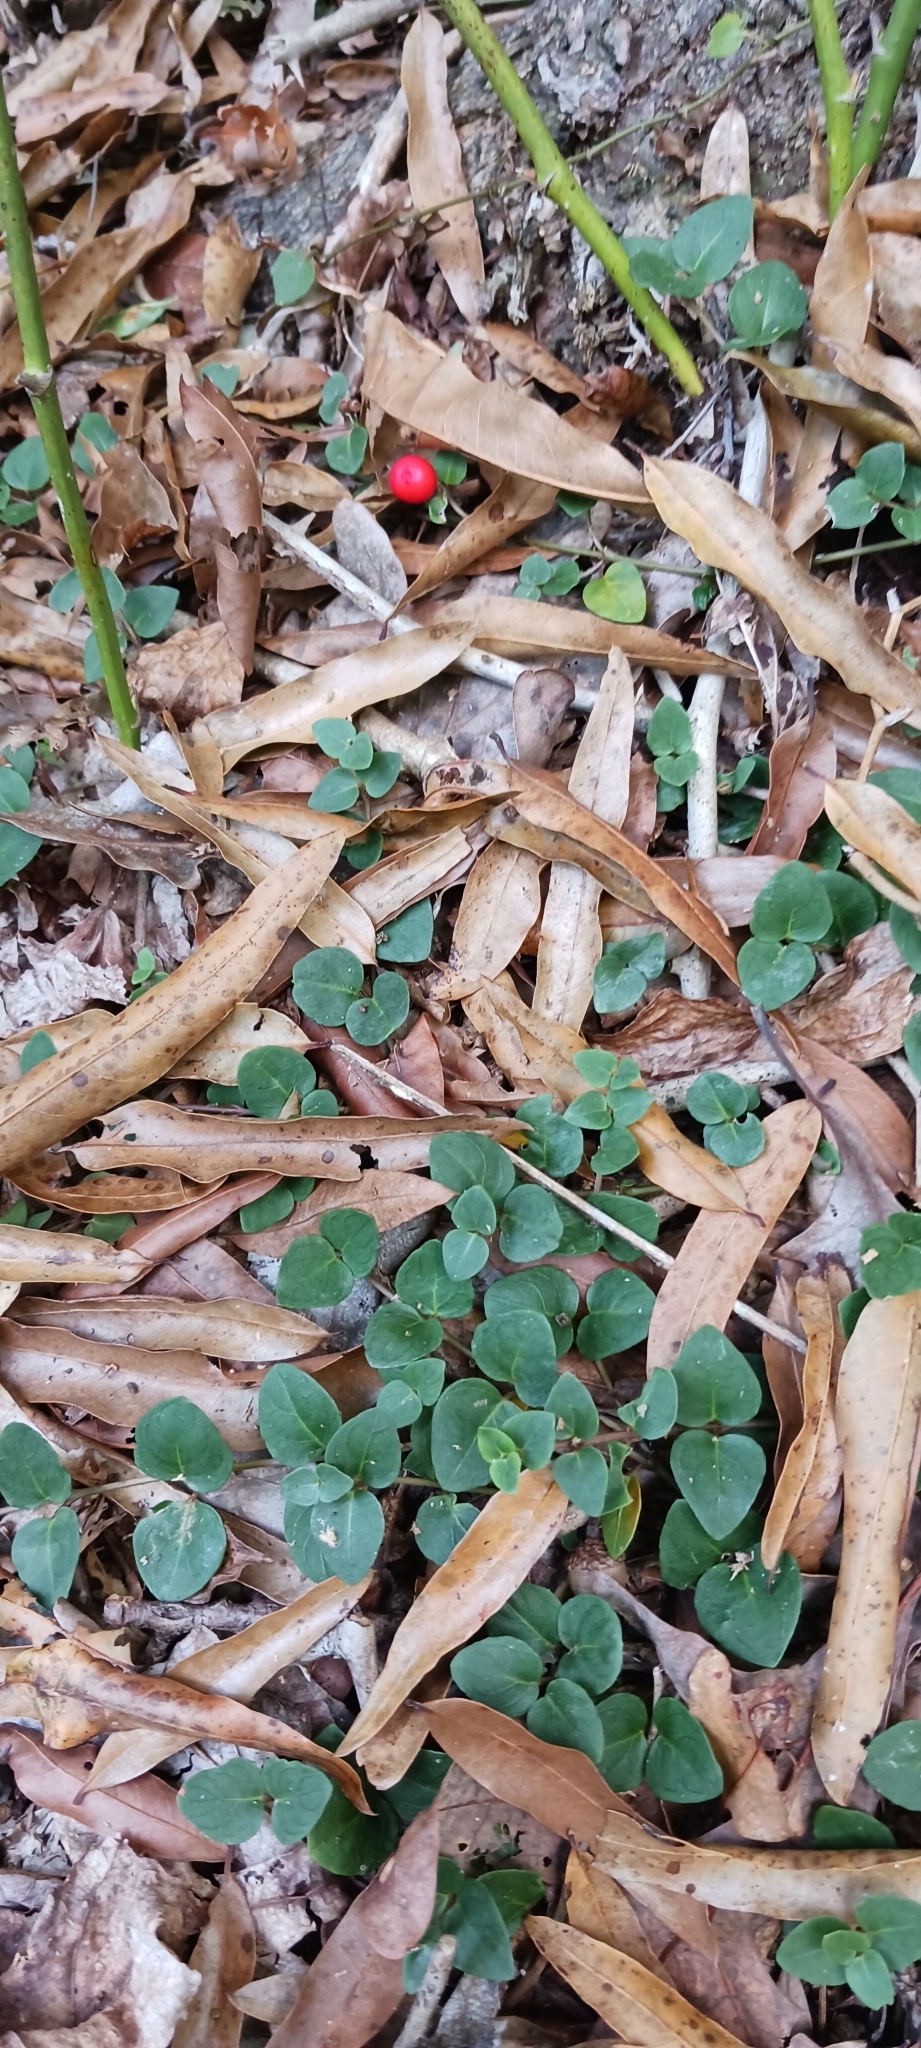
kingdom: Plantae
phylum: Tracheophyta
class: Magnoliopsida
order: Gentianales
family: Rubiaceae
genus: Mitchella
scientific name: Mitchella repens
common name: Partridge-berry
